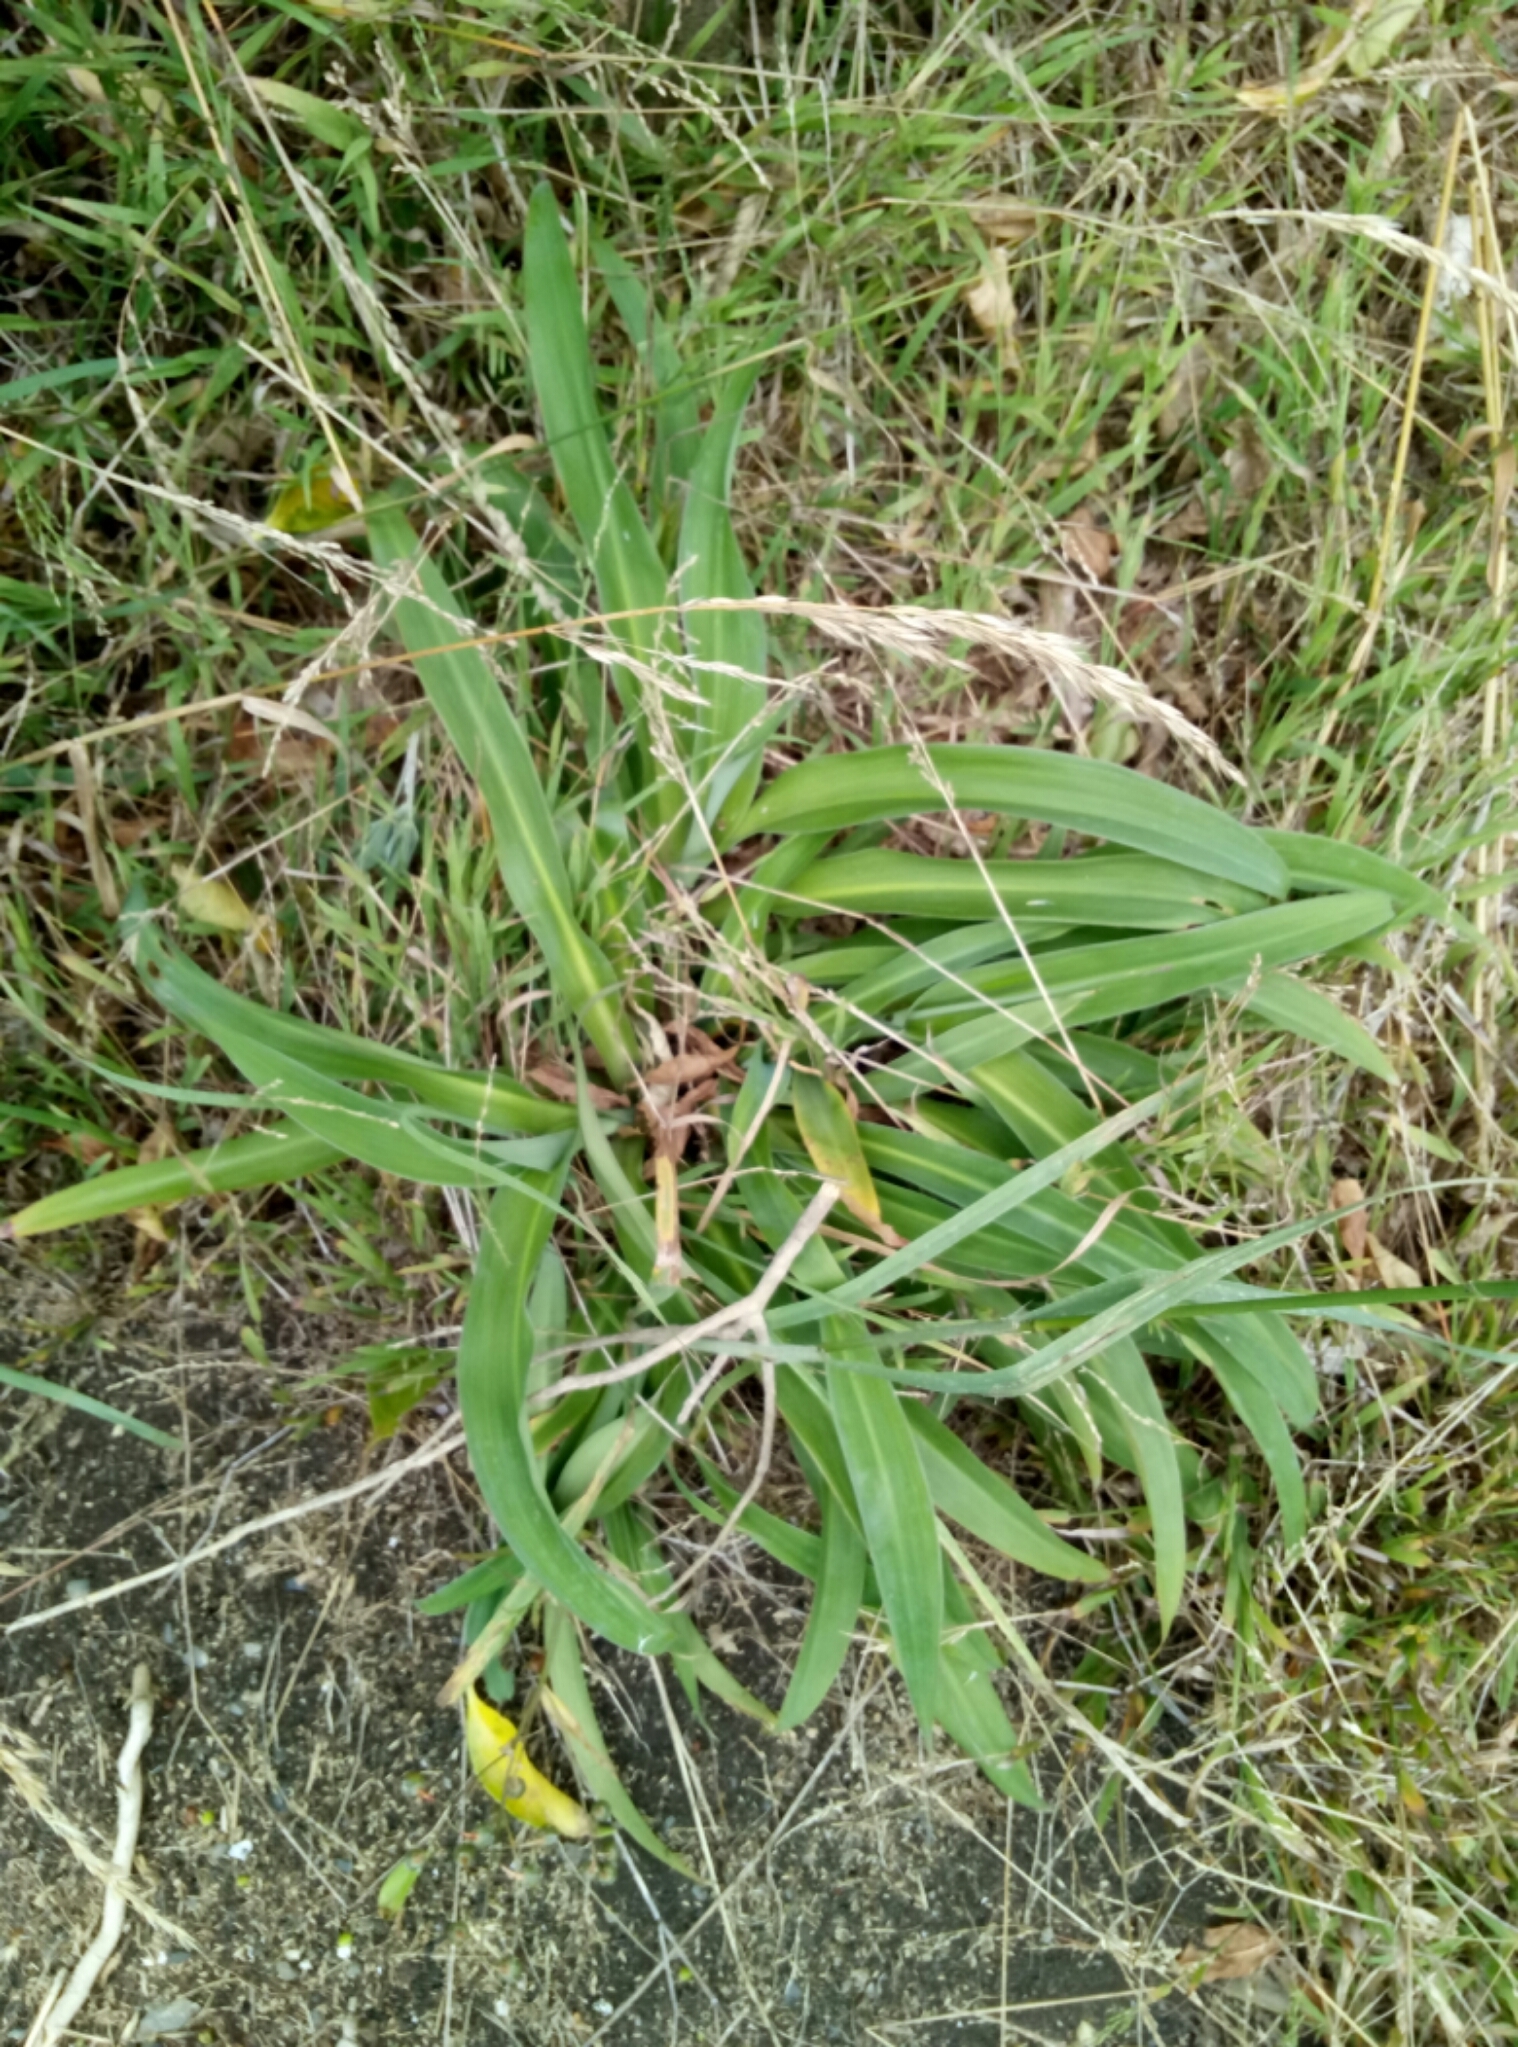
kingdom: Plantae
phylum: Tracheophyta
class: Liliopsida
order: Asparagales
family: Asparagaceae
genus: Arthropodium
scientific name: Arthropodium cirratum
